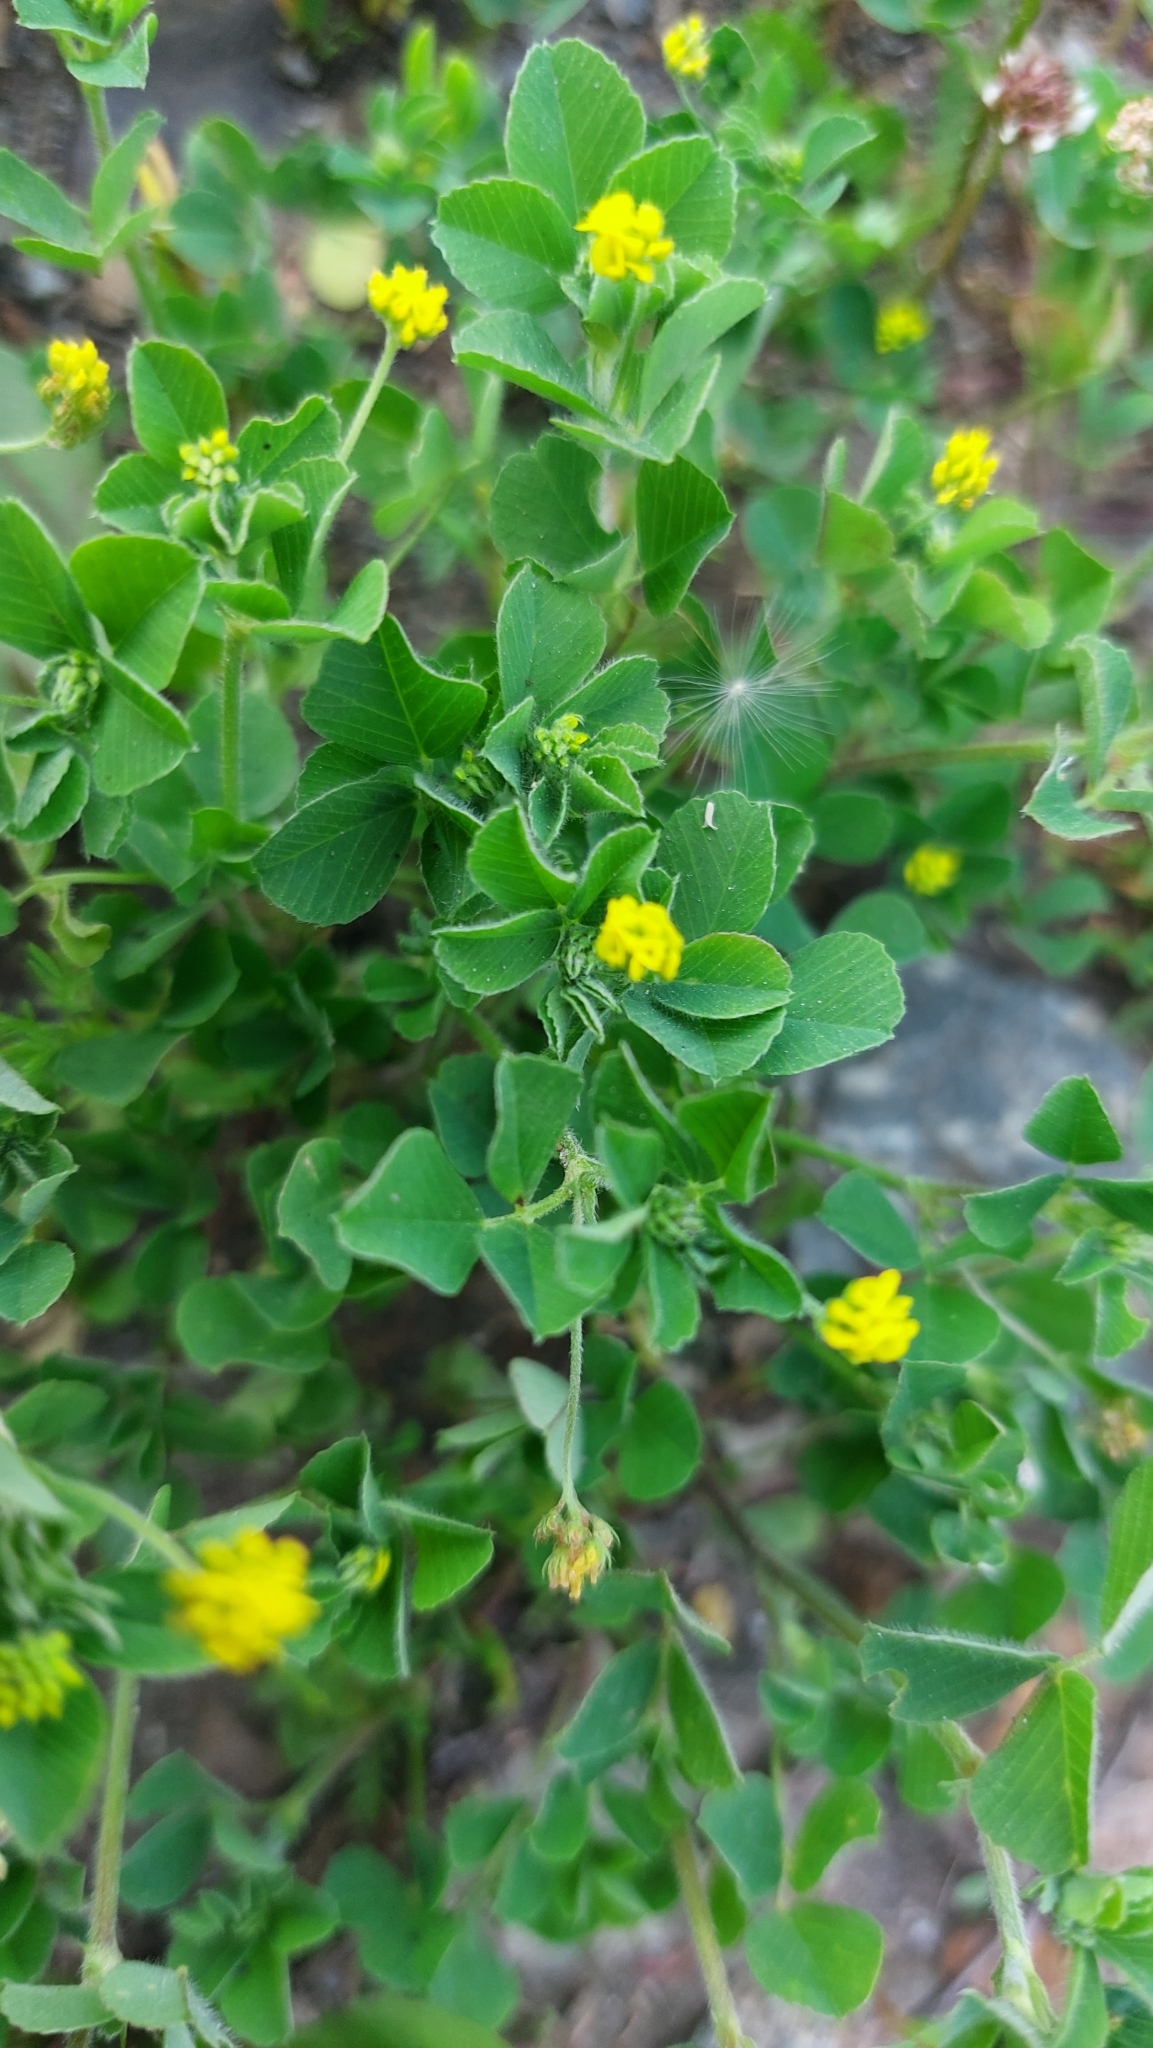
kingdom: Plantae
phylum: Tracheophyta
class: Magnoliopsida
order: Fabales
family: Fabaceae
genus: Medicago
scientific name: Medicago lupulina
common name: Black medick
